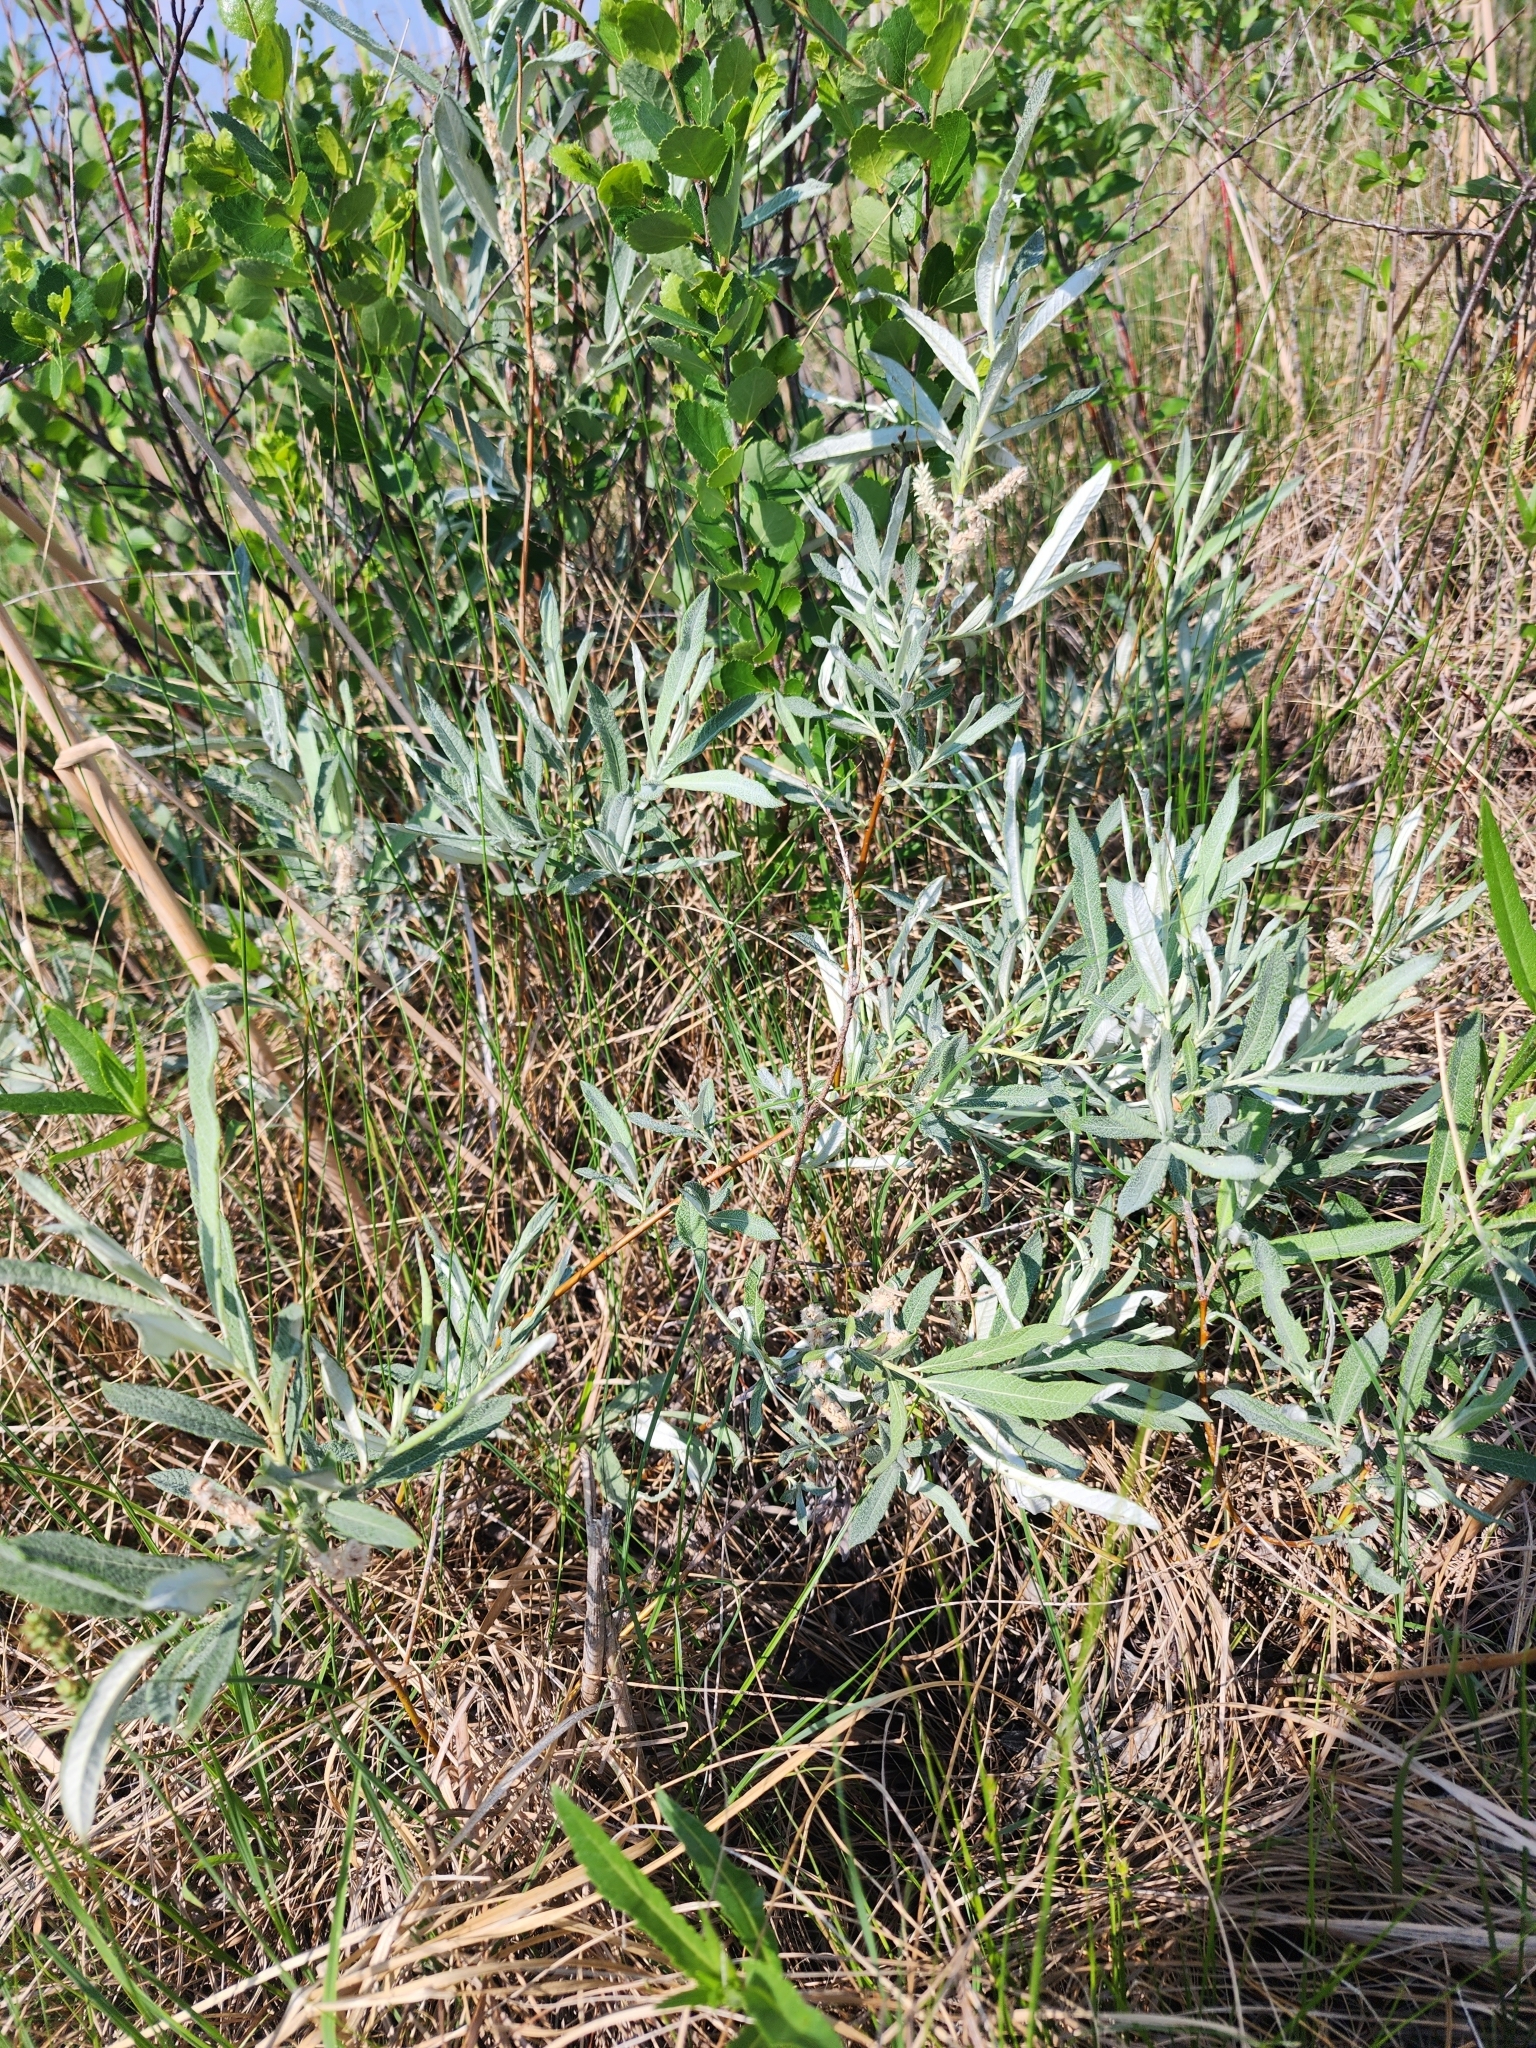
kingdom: Plantae
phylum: Tracheophyta
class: Magnoliopsida
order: Malpighiales
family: Salicaceae
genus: Salix
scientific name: Salix candida
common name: Hoary willow
